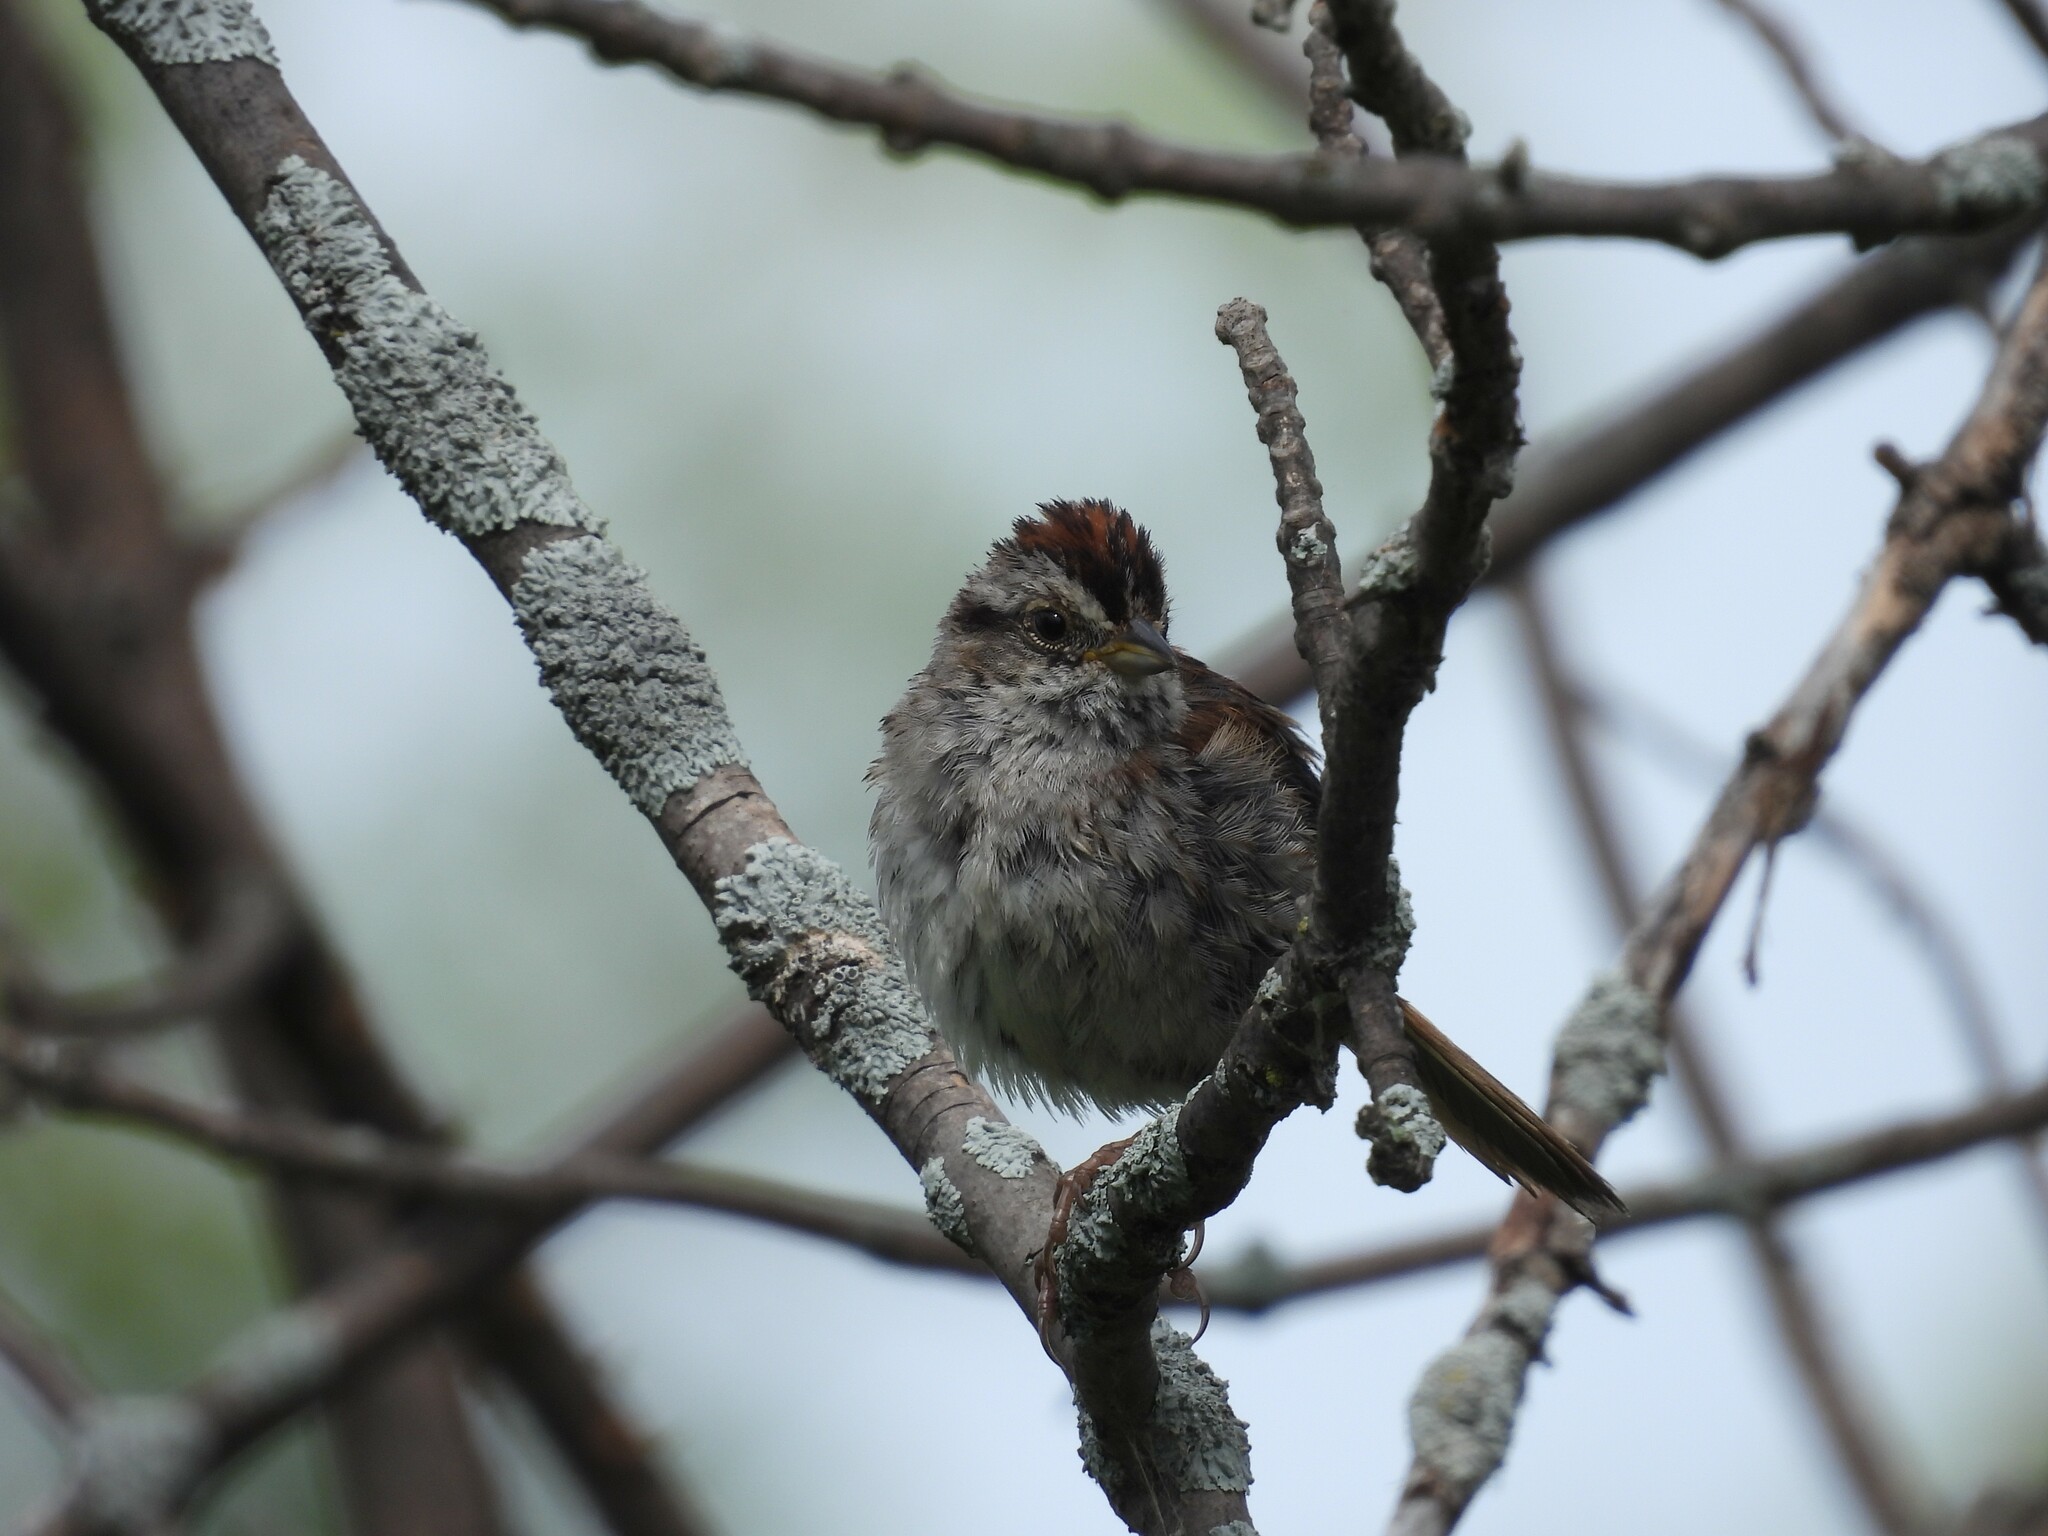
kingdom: Animalia
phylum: Chordata
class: Aves
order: Passeriformes
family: Passerellidae
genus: Melospiza
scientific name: Melospiza georgiana
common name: Swamp sparrow
